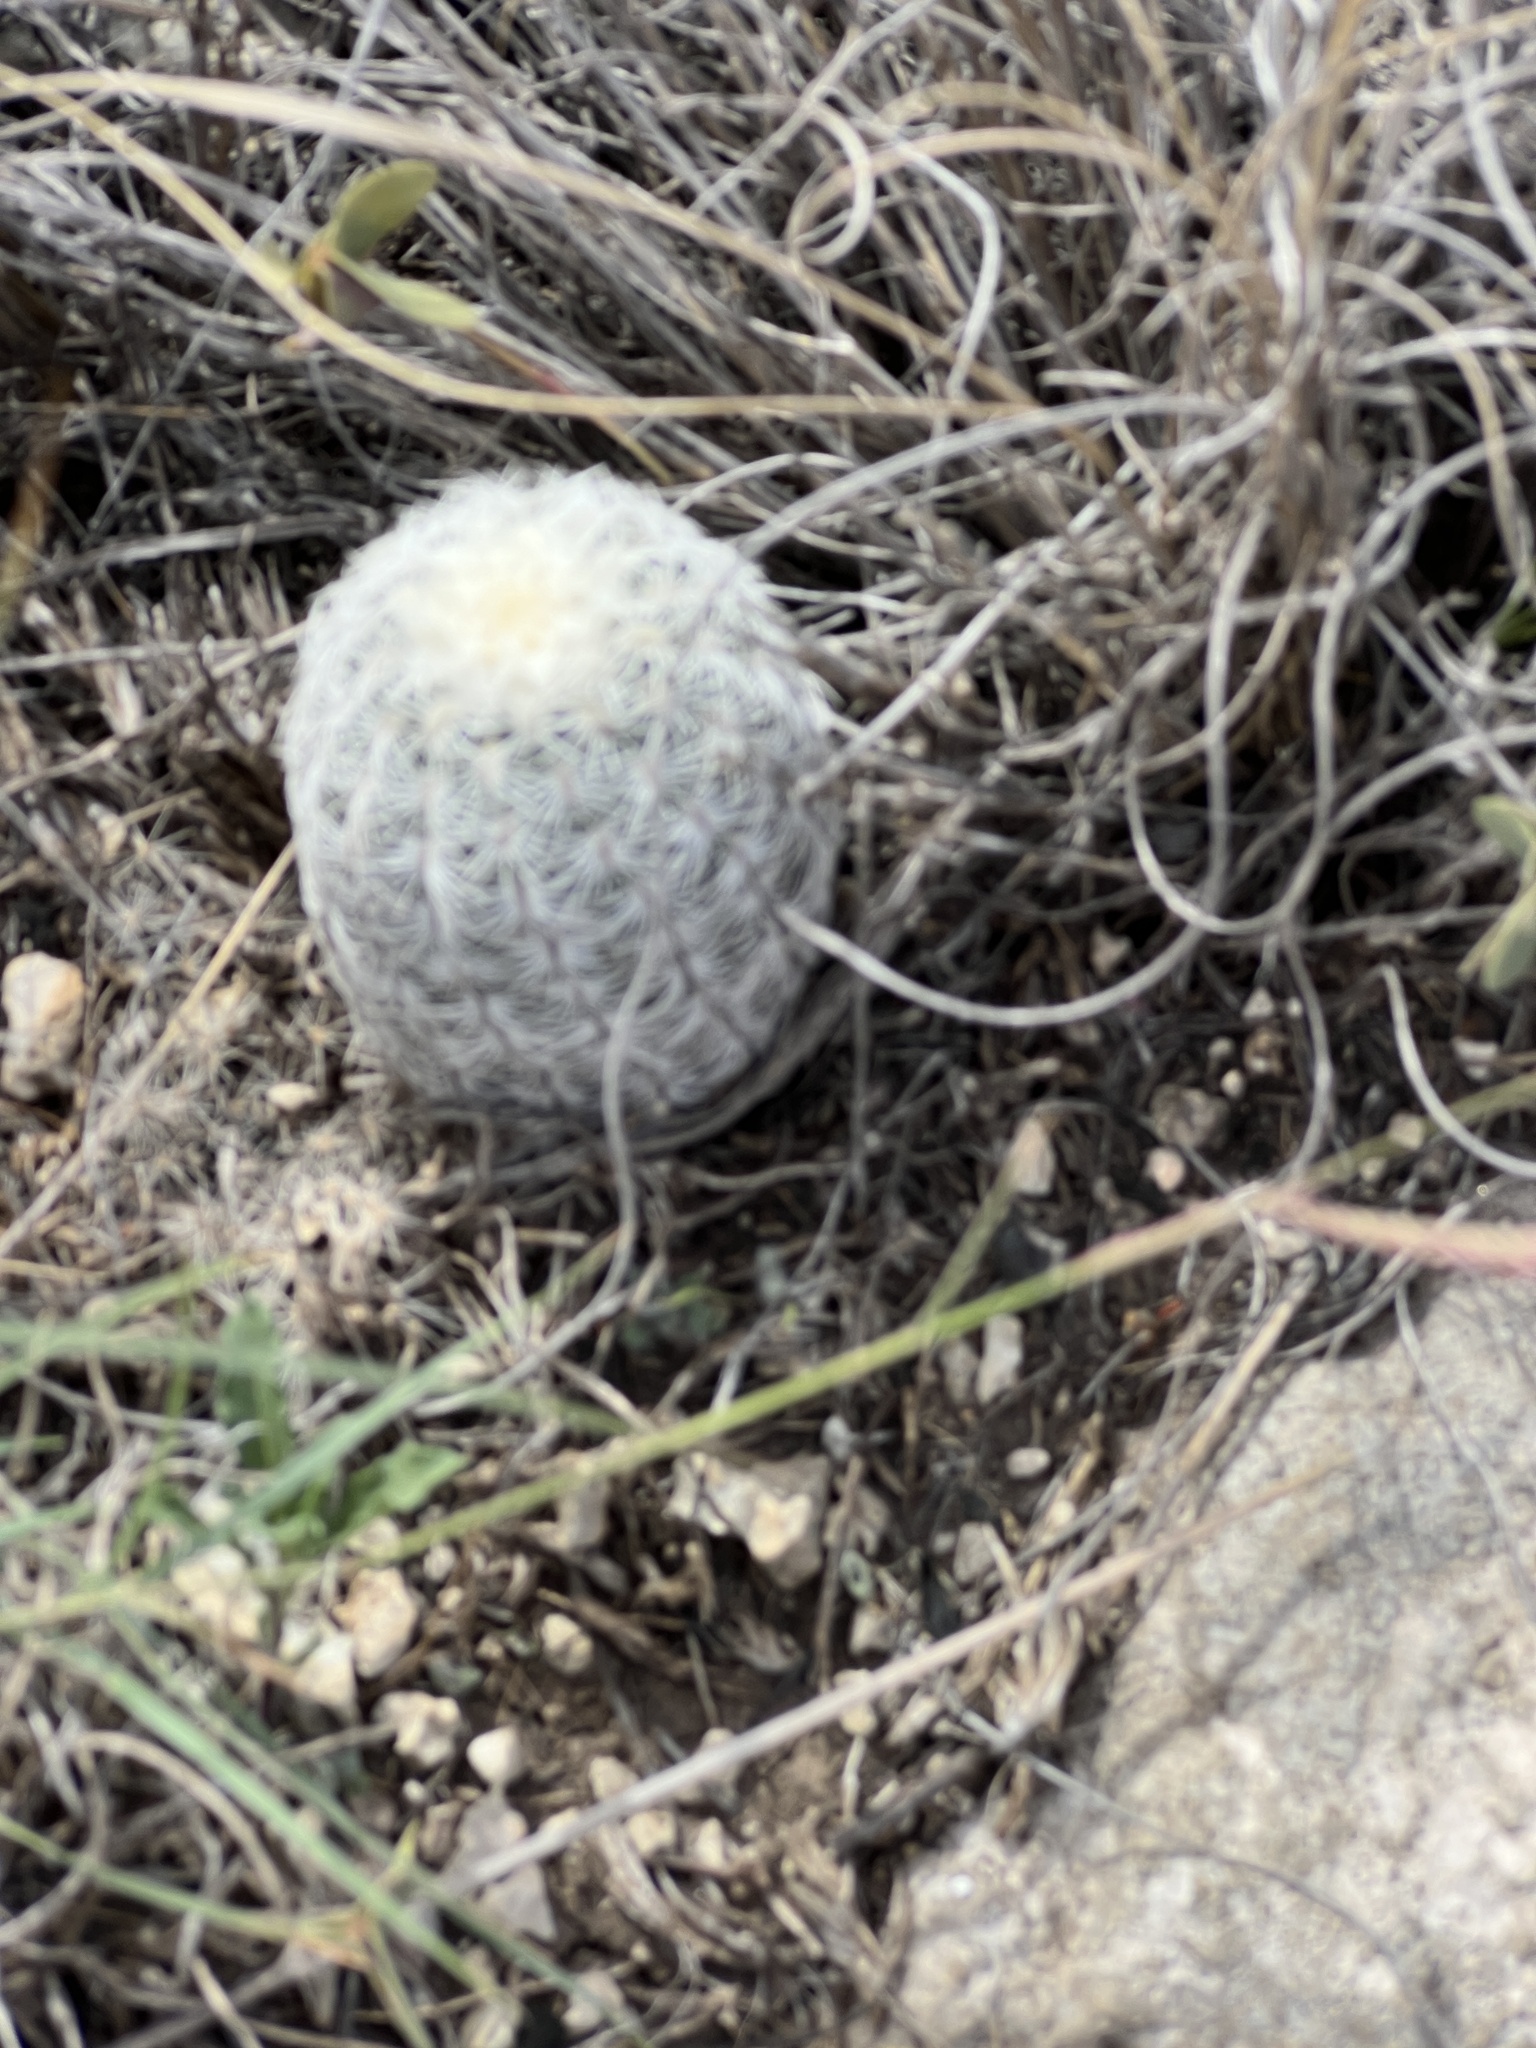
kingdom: Plantae
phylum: Tracheophyta
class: Magnoliopsida
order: Caryophyllales
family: Cactaceae
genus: Echinocereus
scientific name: Echinocereus reichenbachii
